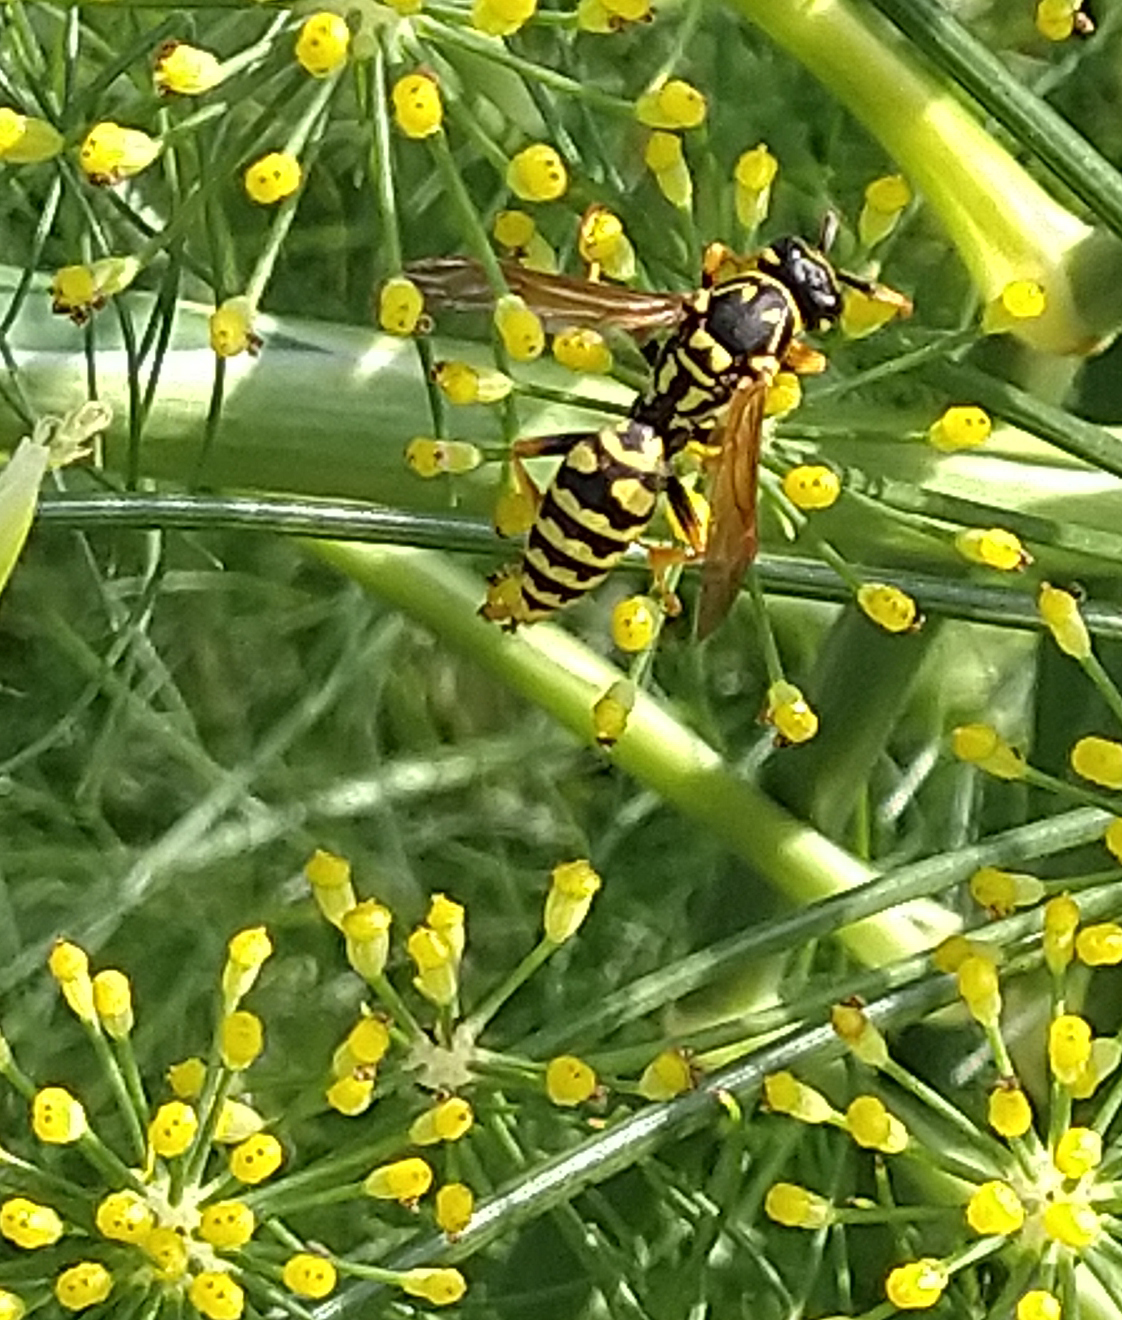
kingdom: Animalia
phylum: Arthropoda
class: Insecta
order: Hymenoptera
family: Eumenidae
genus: Polistes
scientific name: Polistes dominula
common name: Paper wasp
